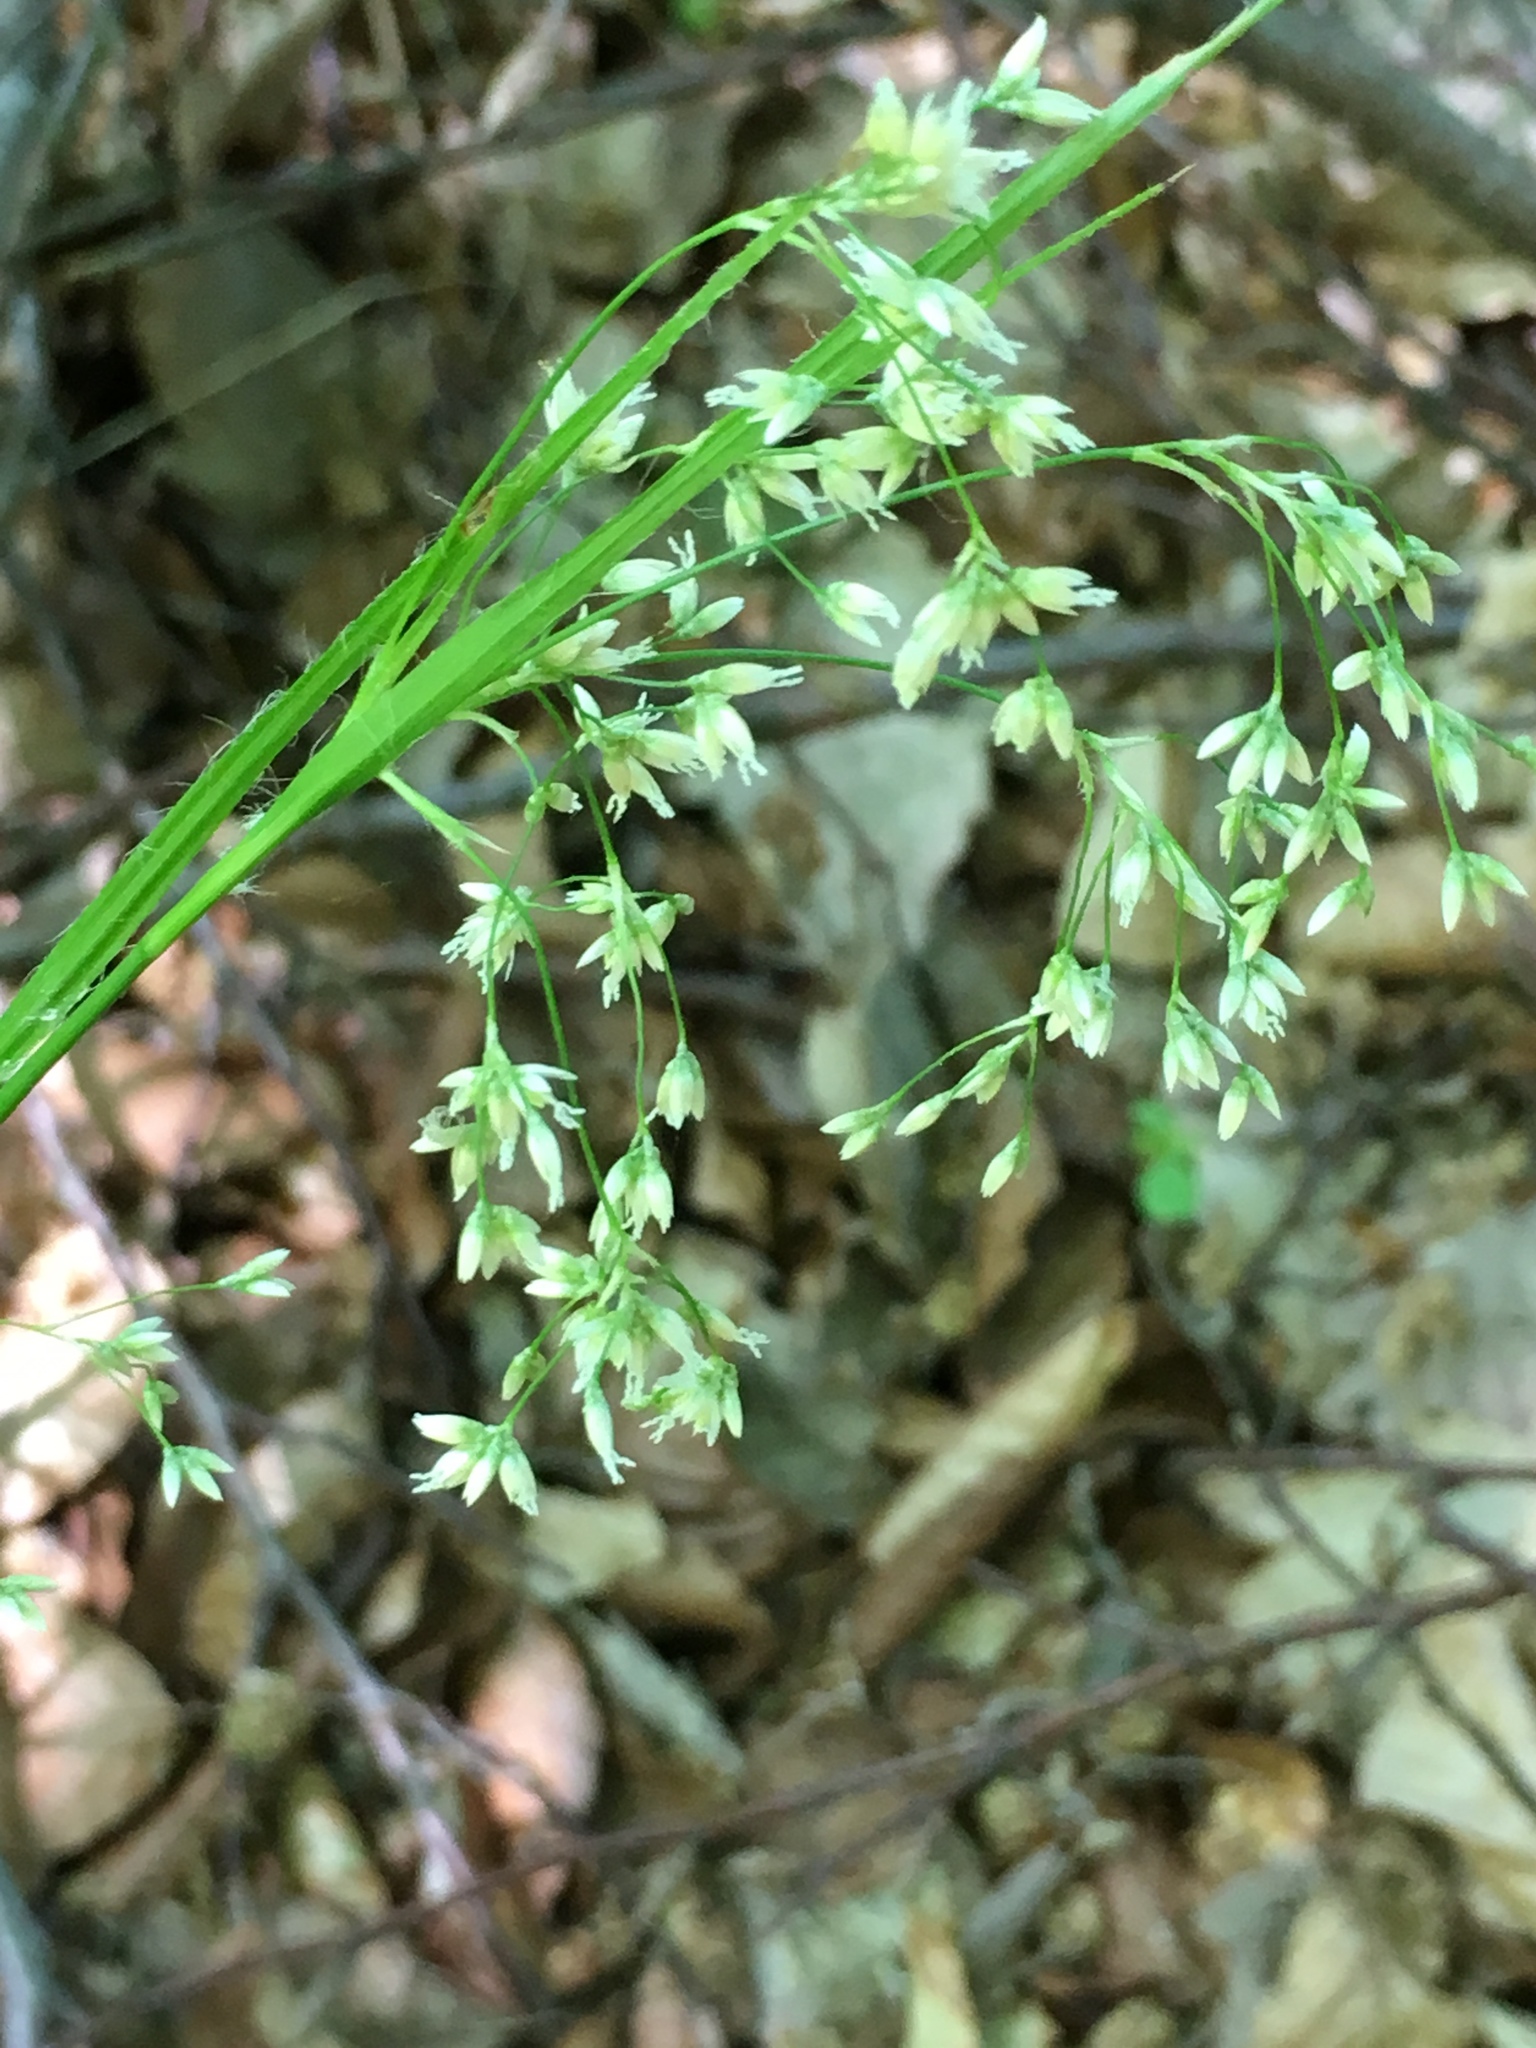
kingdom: Plantae
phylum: Tracheophyta
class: Liliopsida
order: Poales
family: Juncaceae
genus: Luzula
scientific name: Luzula luzuloides
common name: White wood-rush
